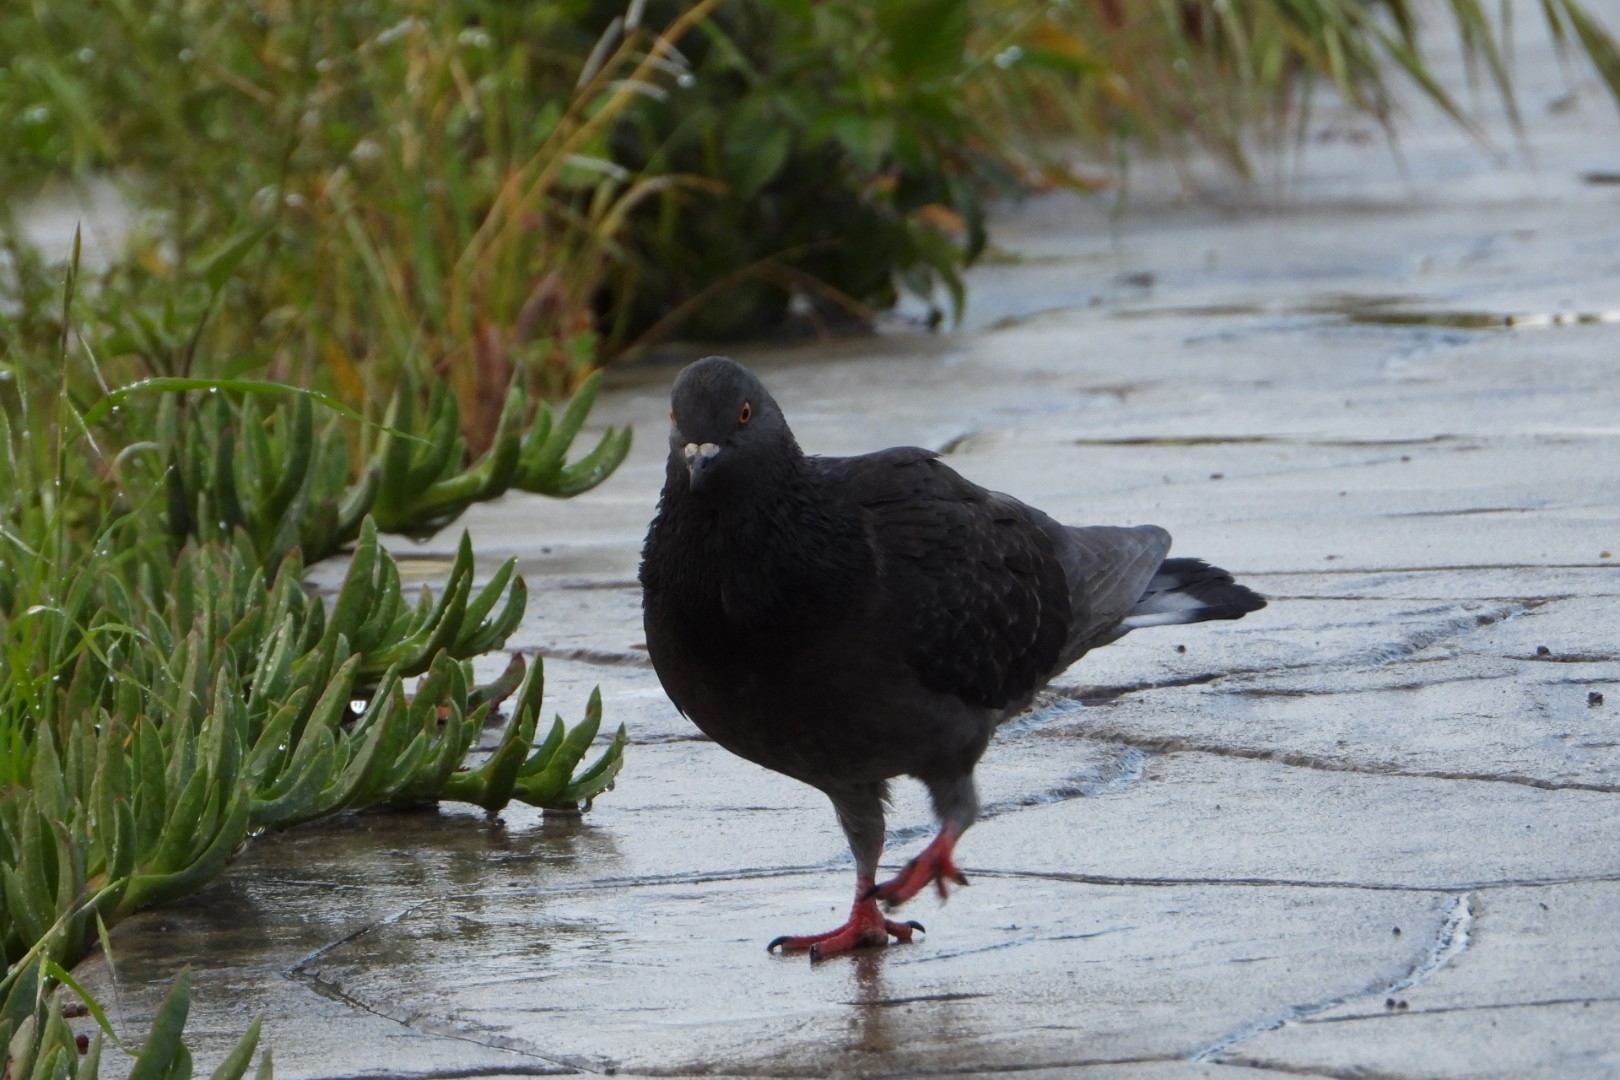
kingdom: Animalia
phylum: Chordata
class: Aves
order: Columbiformes
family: Columbidae
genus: Columba
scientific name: Columba livia
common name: Rock pigeon
